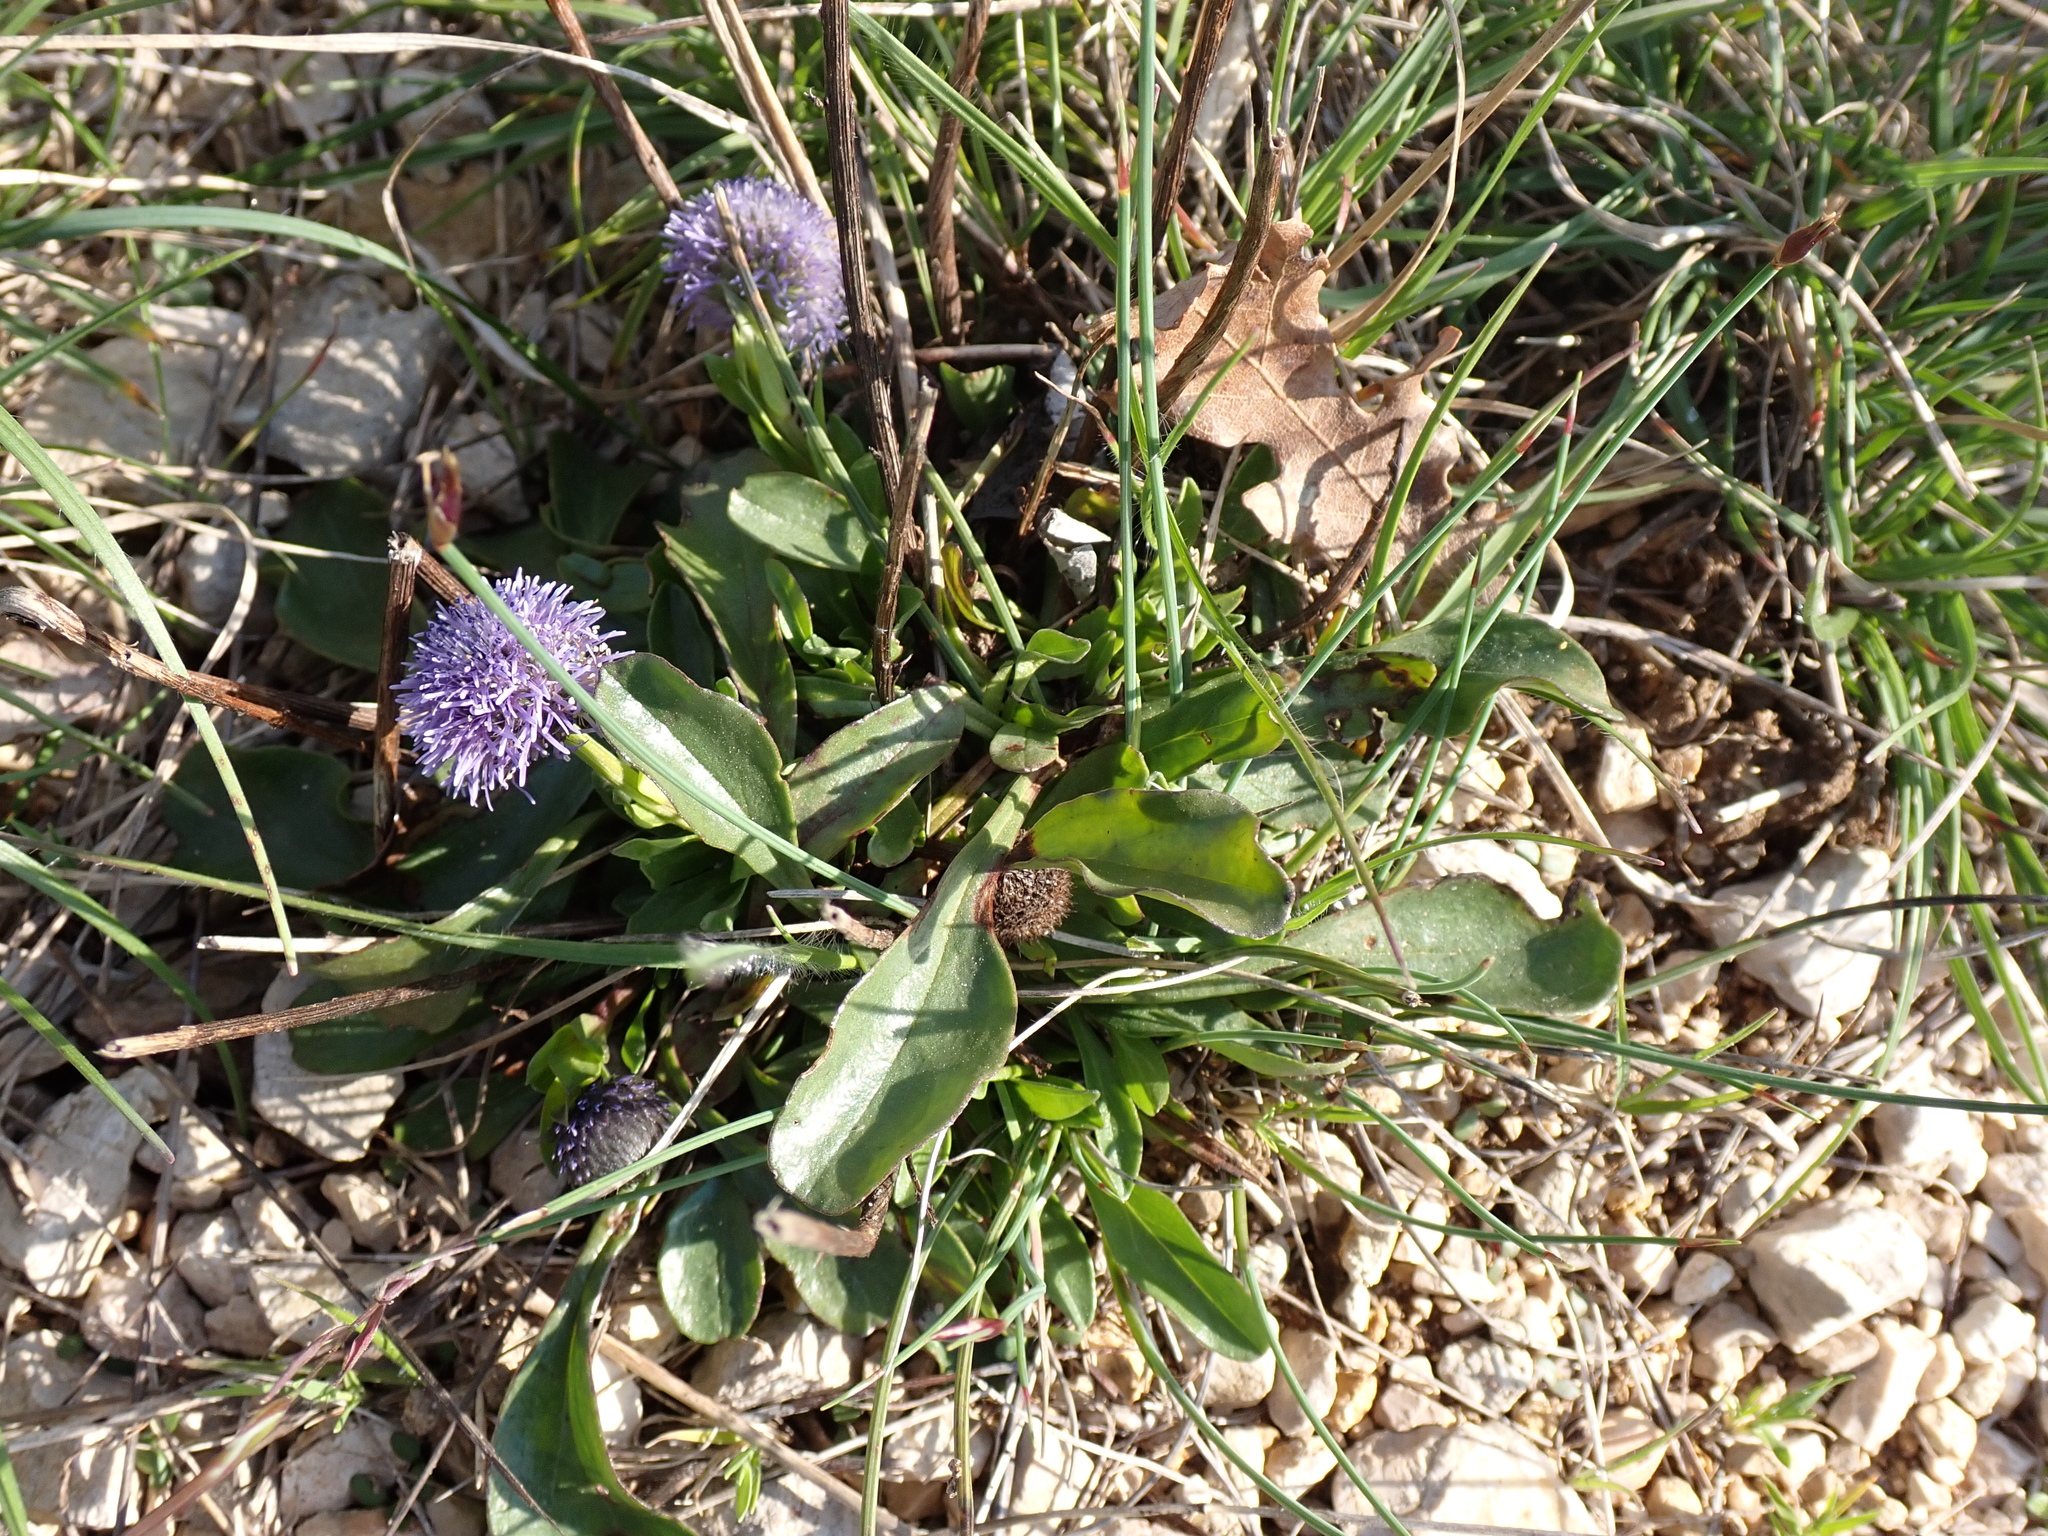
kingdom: Plantae
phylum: Tracheophyta
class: Magnoliopsida
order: Lamiales
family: Plantaginaceae
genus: Globularia
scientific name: Globularia bisnagarica
